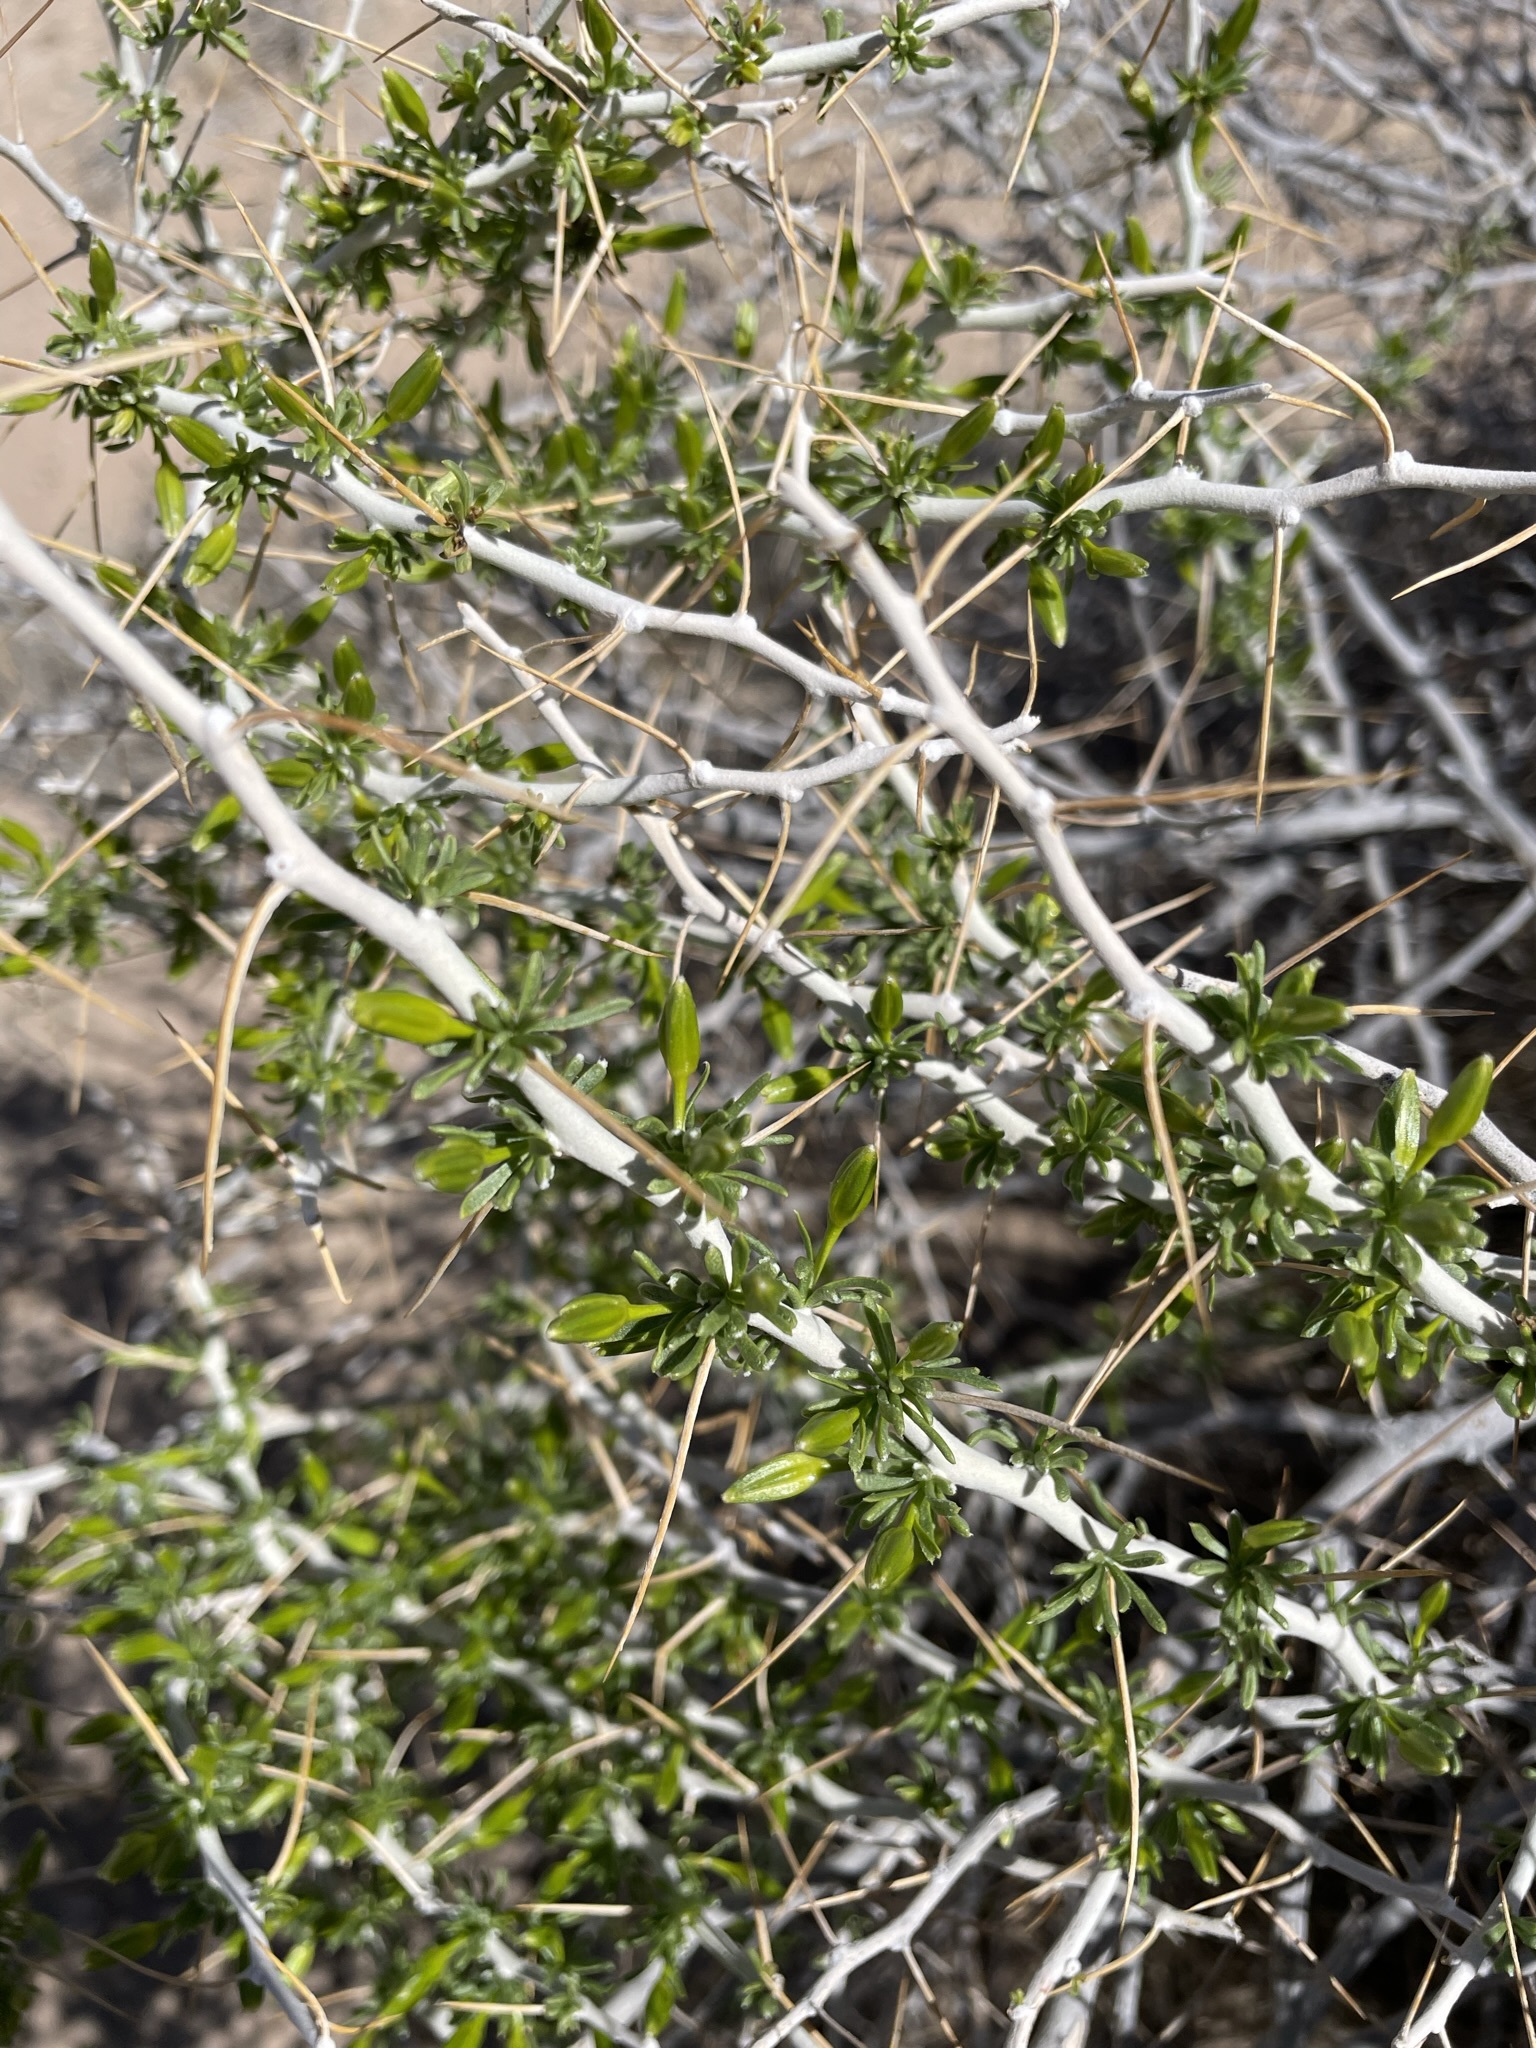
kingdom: Plantae
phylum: Tracheophyta
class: Magnoliopsida
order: Asterales
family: Asteraceae
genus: Tetradymia
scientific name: Tetradymia axillaris
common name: Long-spine horsebrush
